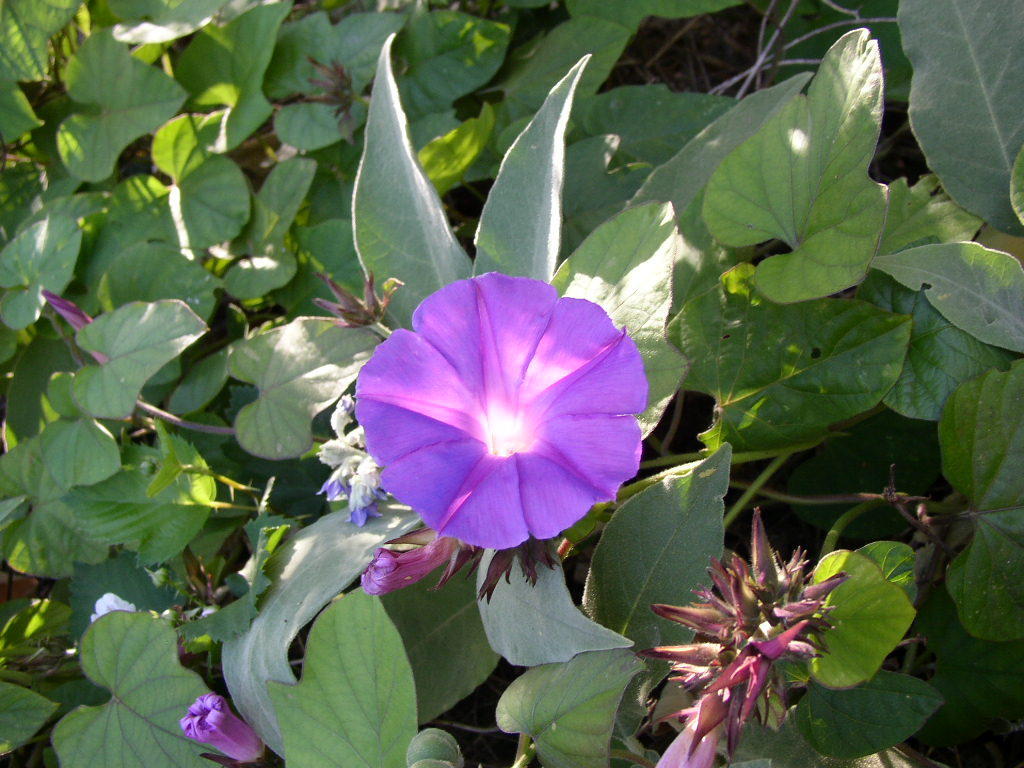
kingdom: Plantae
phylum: Tracheophyta
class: Magnoliopsida
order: Solanales
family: Convolvulaceae
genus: Ipomoea
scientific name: Ipomoea indica
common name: Blue dawnflower
